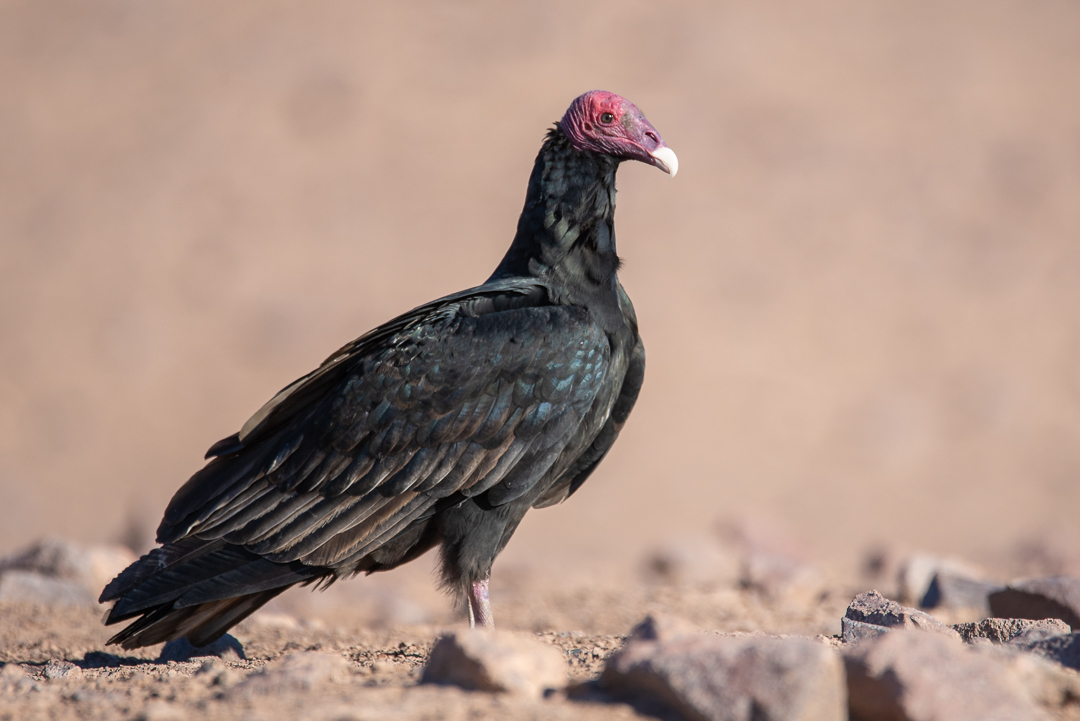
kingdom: Animalia
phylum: Chordata
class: Aves
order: Accipitriformes
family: Cathartidae
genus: Cathartes
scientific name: Cathartes aura
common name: Turkey vulture
